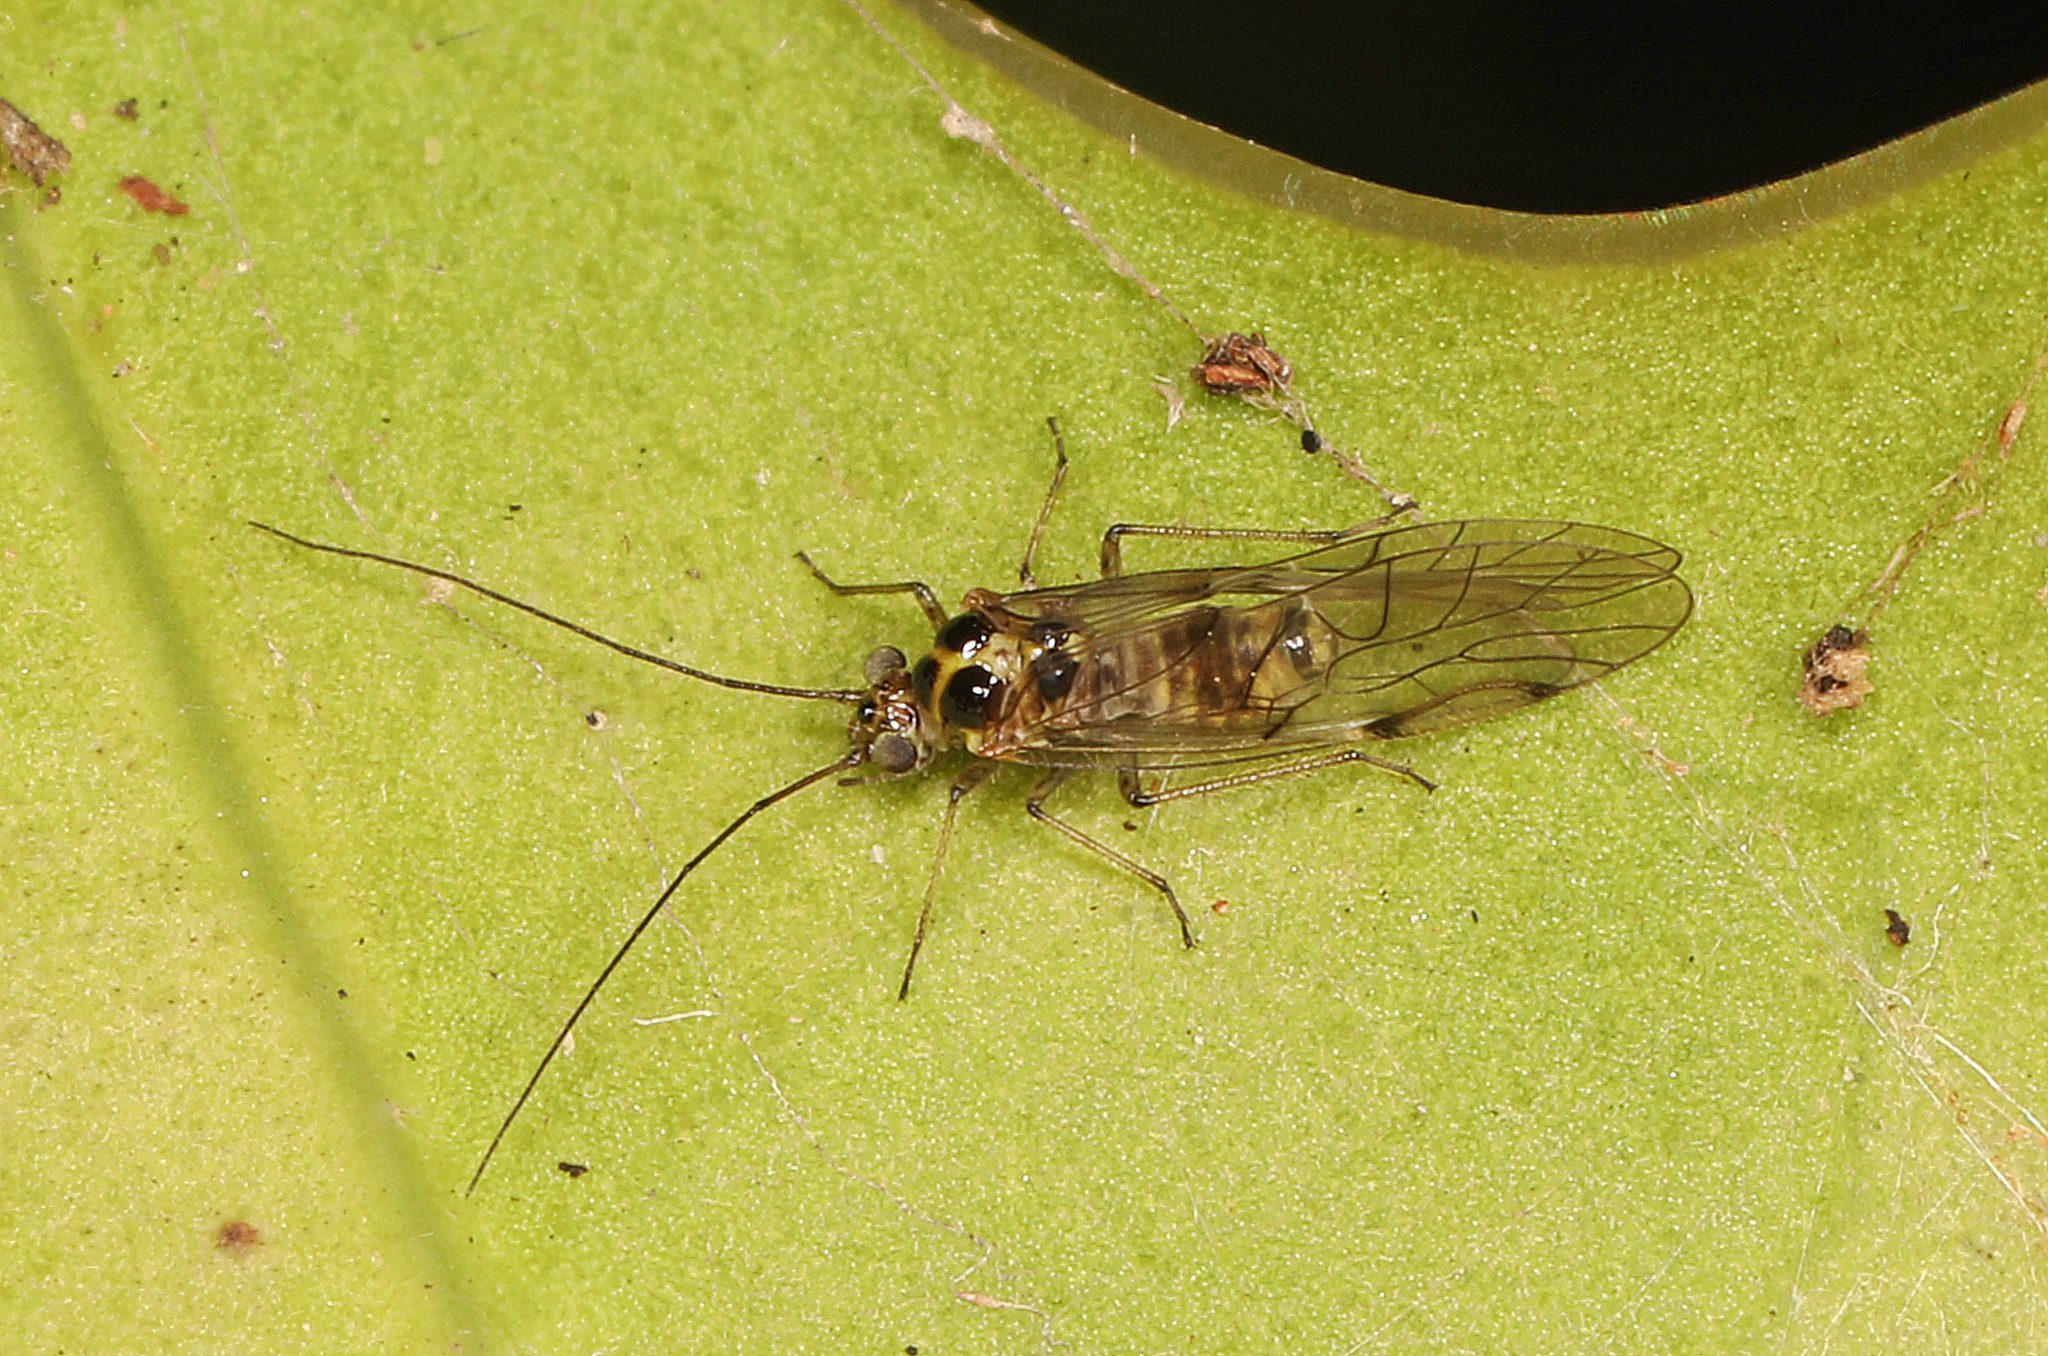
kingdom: Animalia
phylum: Arthropoda
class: Insecta
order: Psocodea
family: Dasydemellidae
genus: Teliapsocus
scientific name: Teliapsocus conterminus
